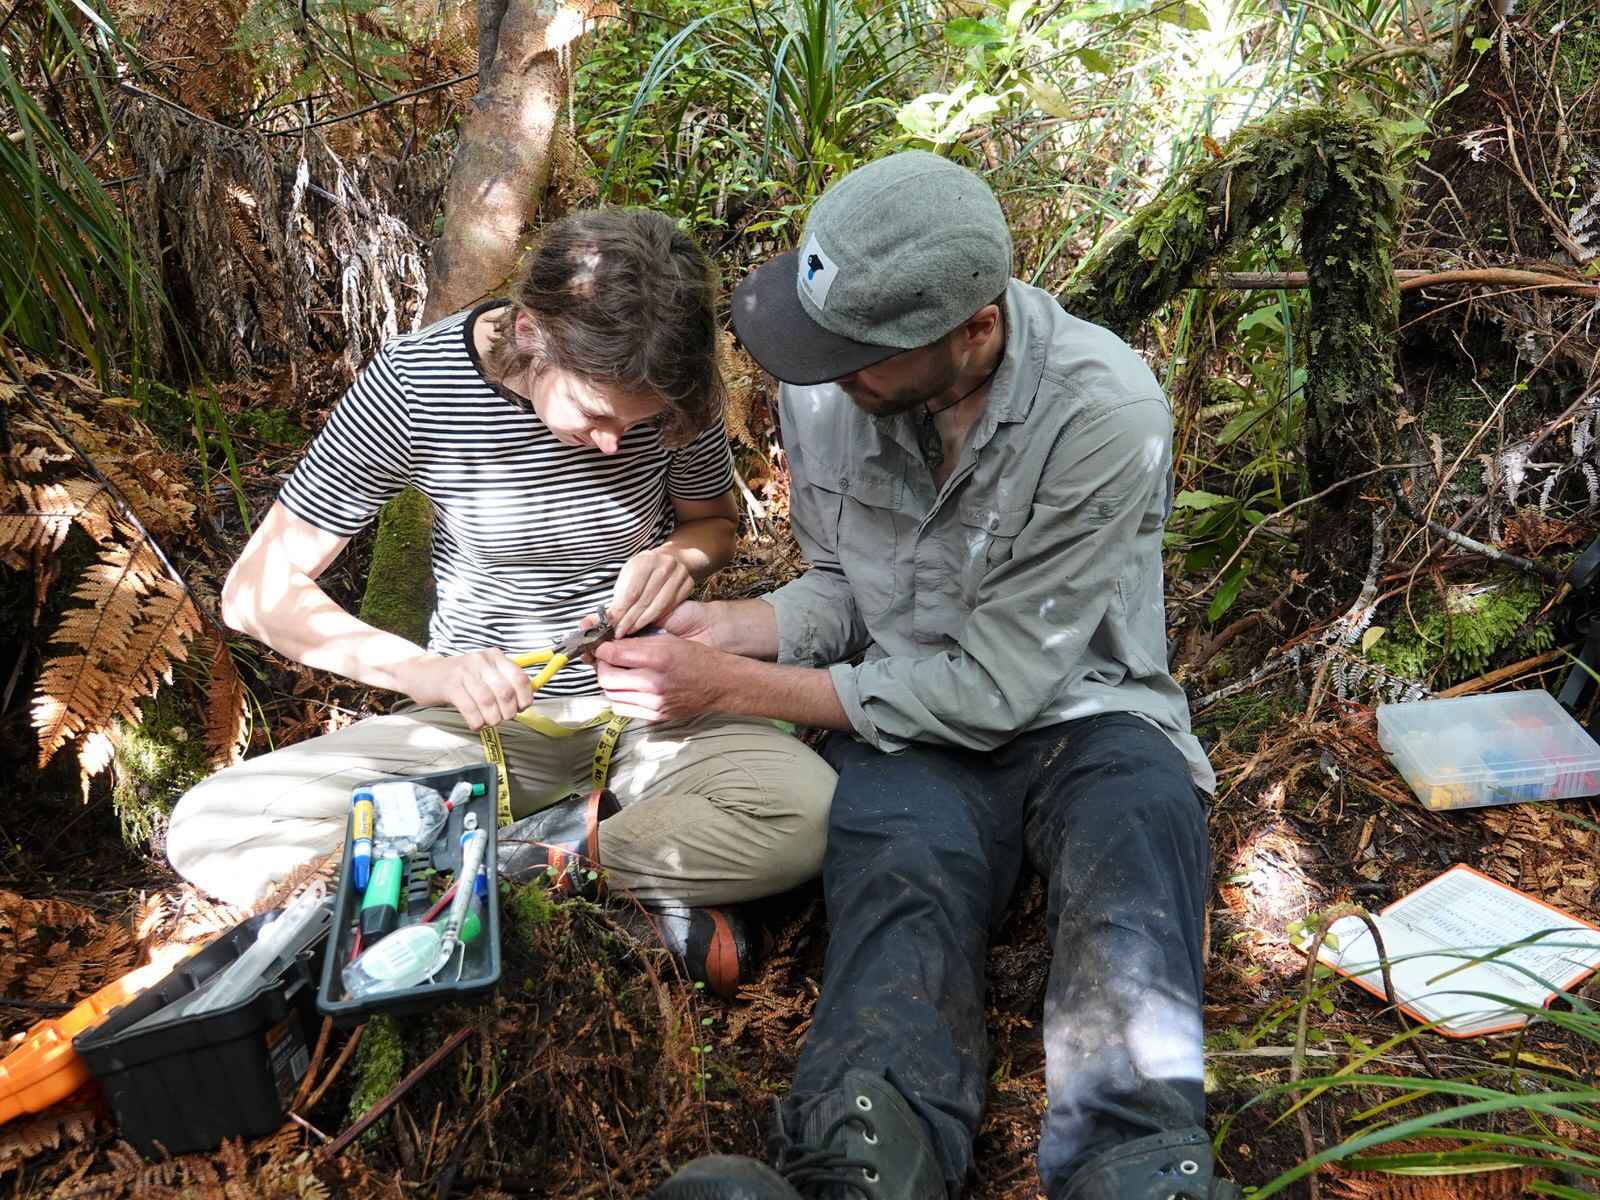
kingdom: Animalia
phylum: Chordata
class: Aves
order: Passeriformes
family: Callaeatidae
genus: Callaeas
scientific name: Callaeas cinereus
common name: South island kokako
